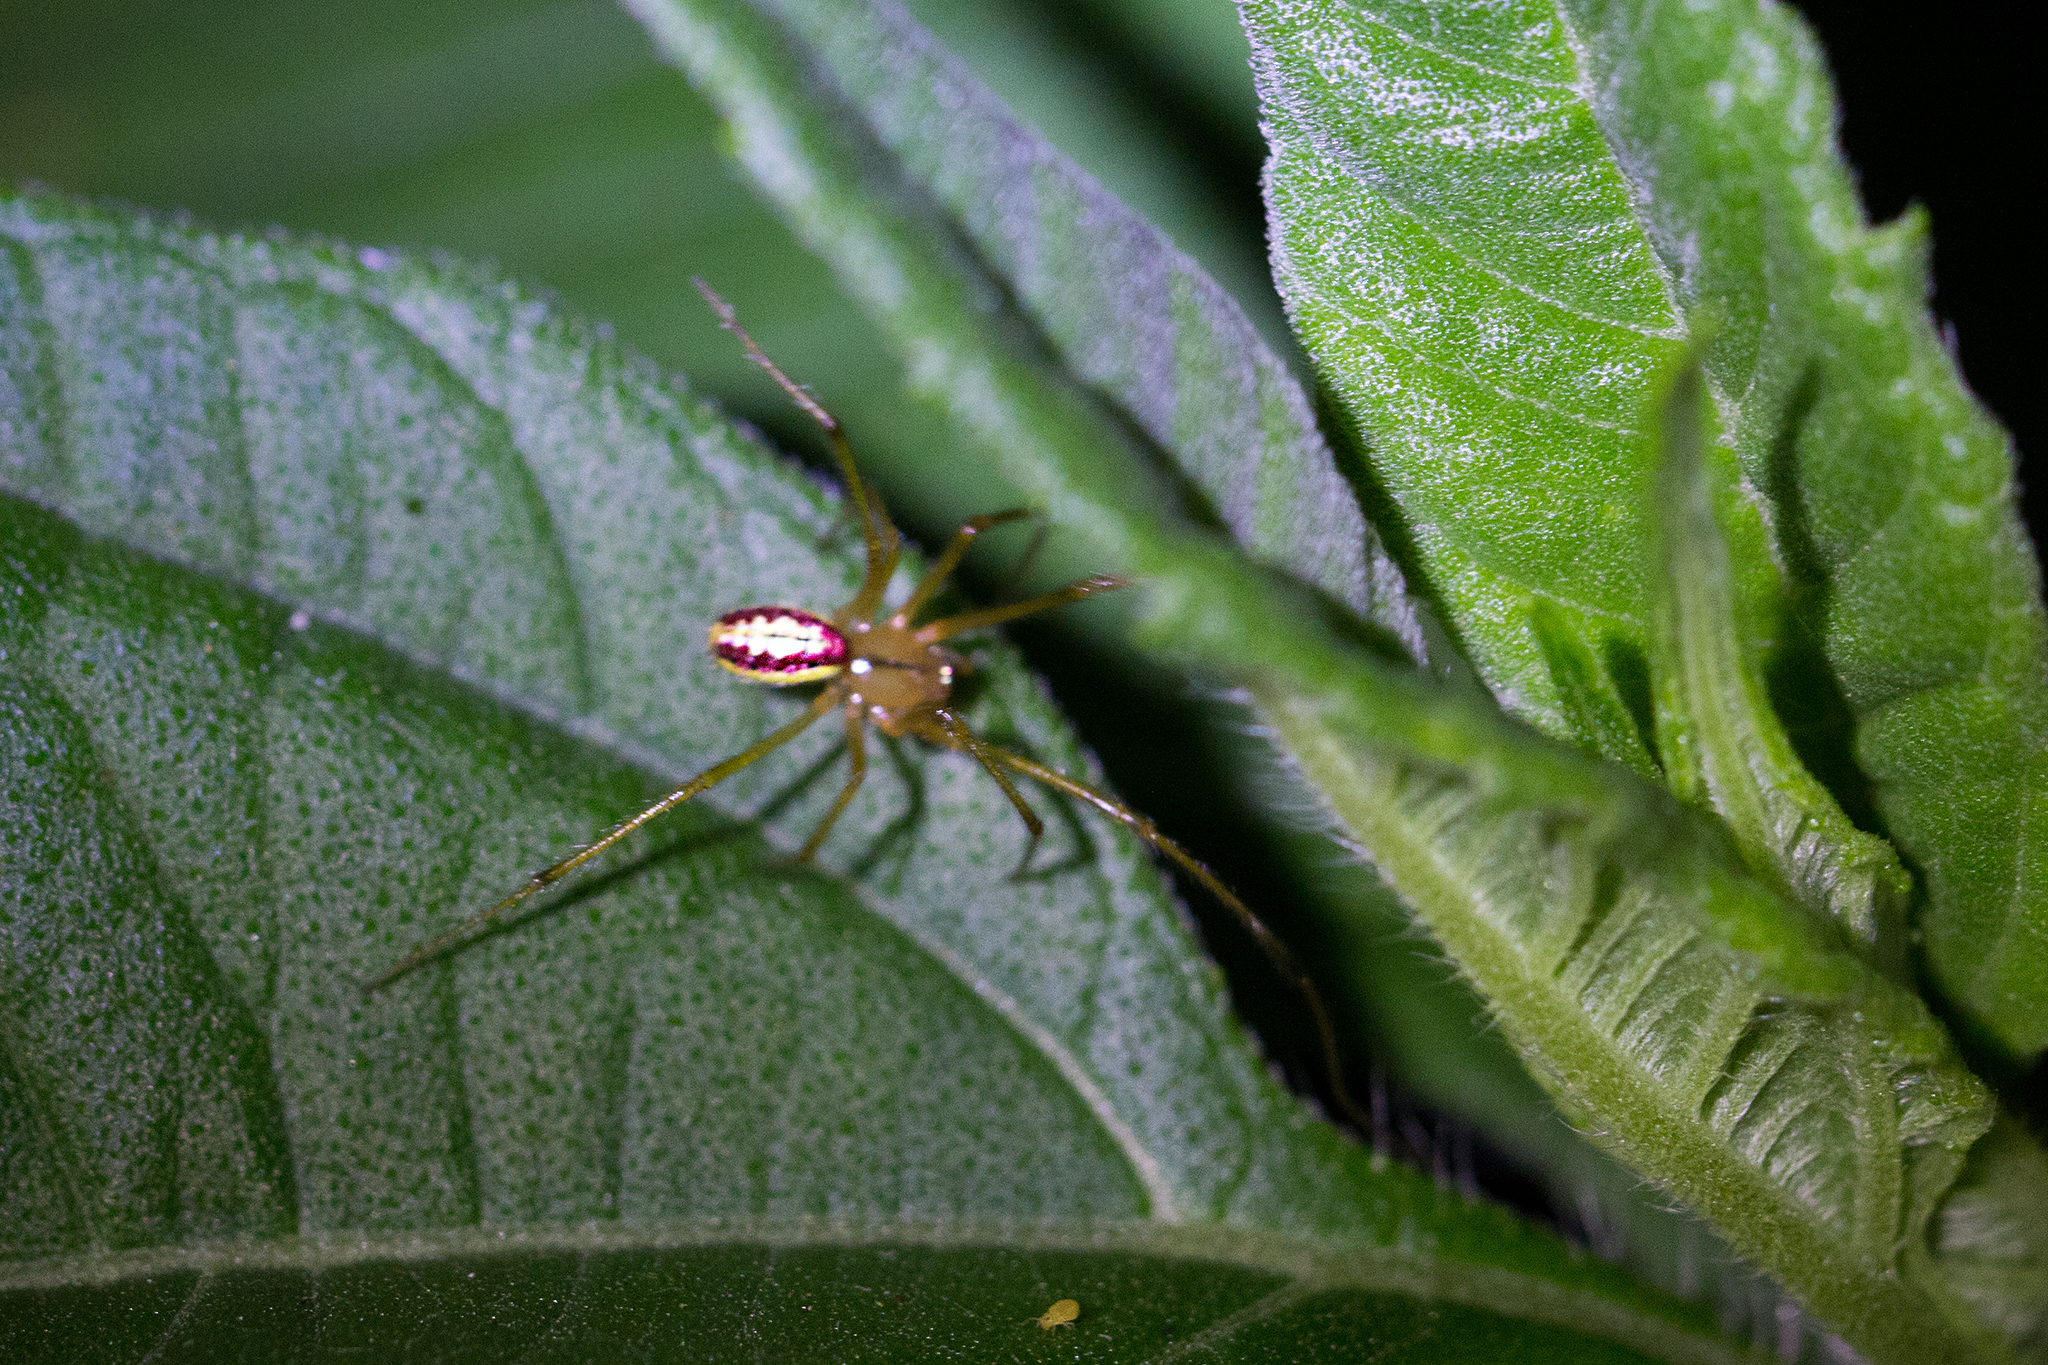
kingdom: Animalia
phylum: Arthropoda
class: Arachnida
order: Araneae
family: Theridiidae
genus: Enoplognatha
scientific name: Enoplognatha ovata
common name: Common candy-striped spider
